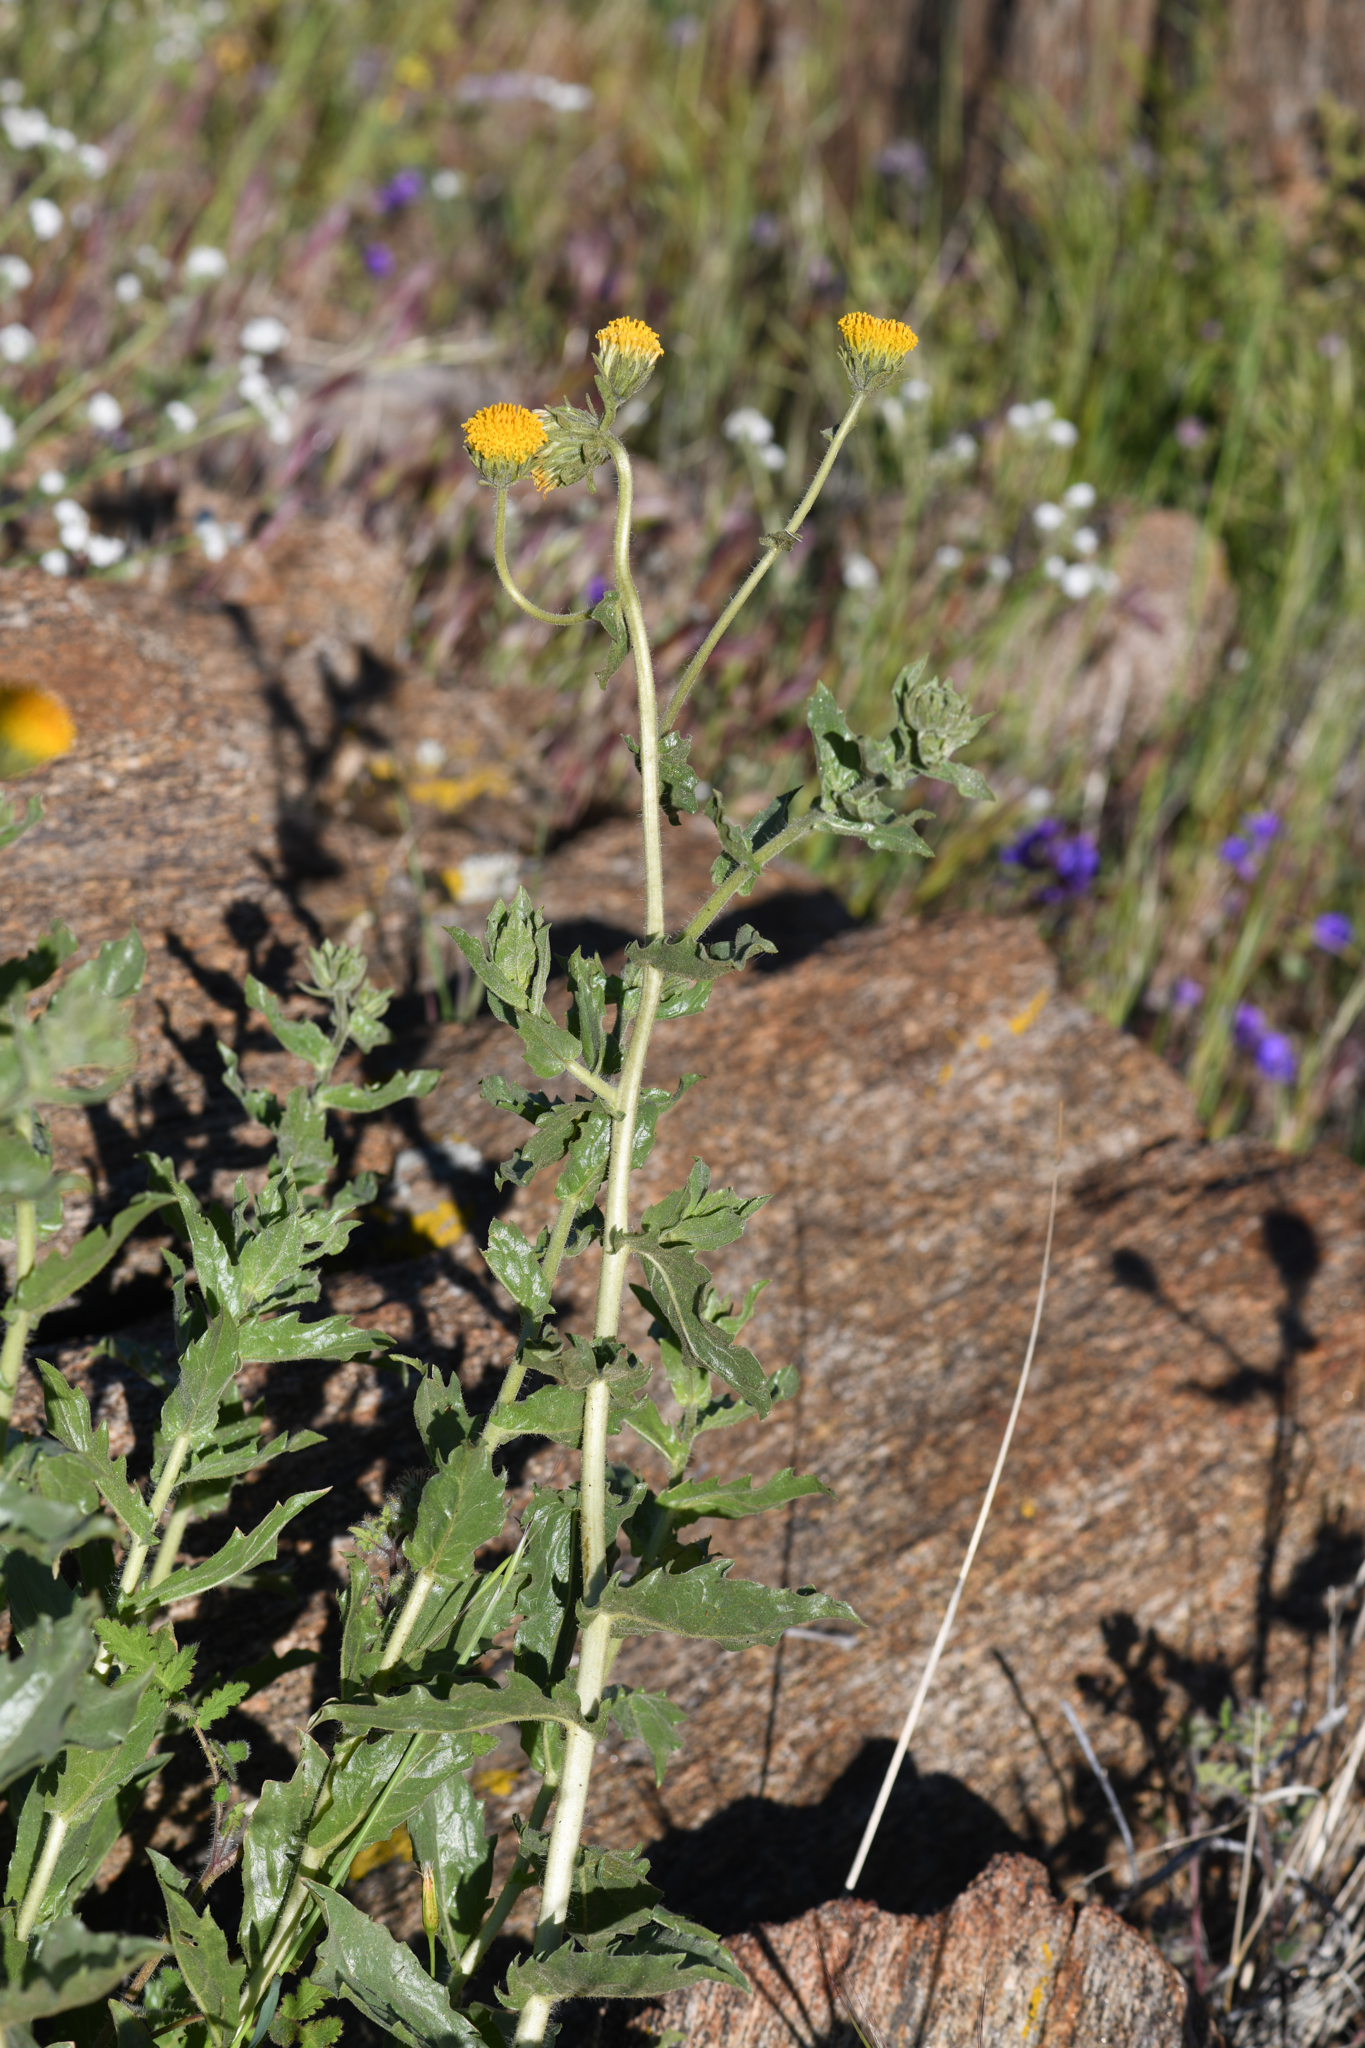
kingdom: Plantae
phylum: Tracheophyta
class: Magnoliopsida
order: Asterales
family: Asteraceae
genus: Geraea
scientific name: Geraea viscida
